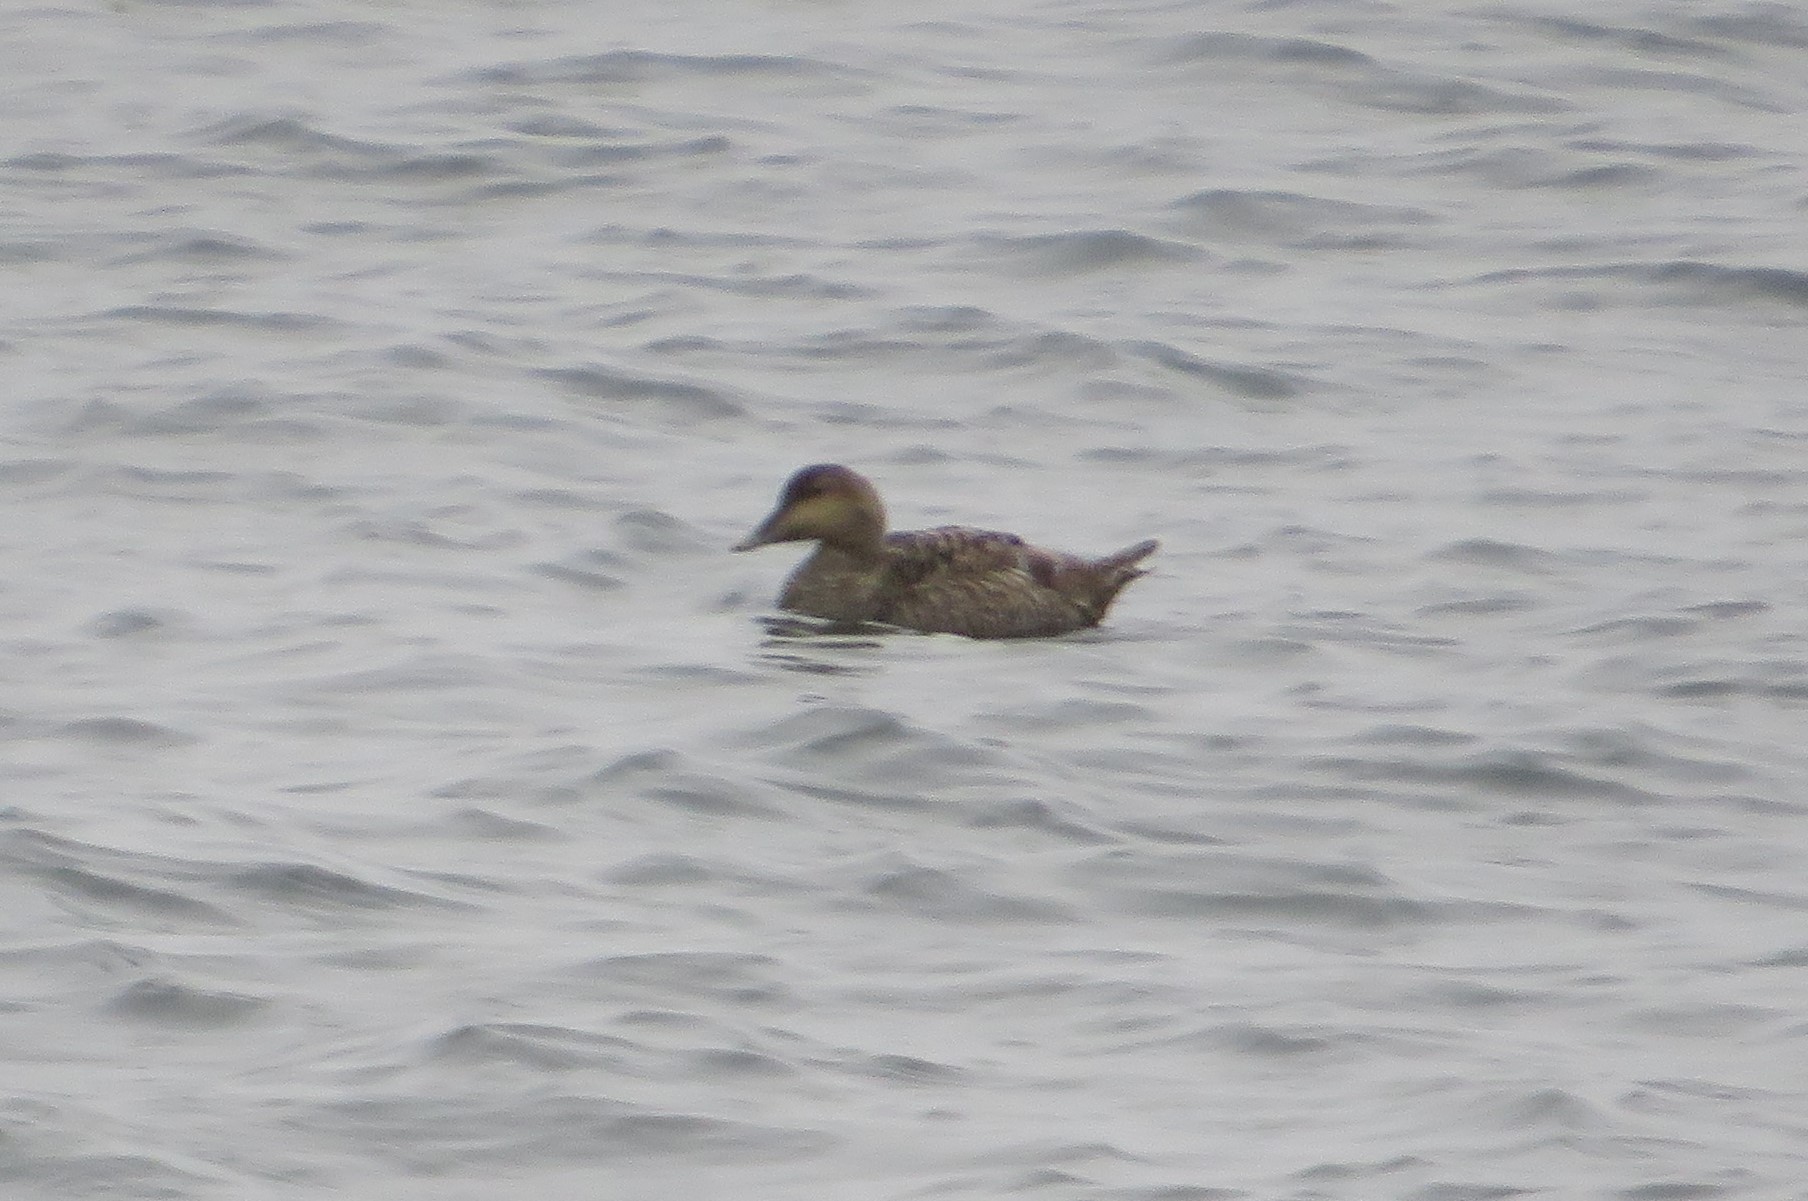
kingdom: Animalia
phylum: Chordata
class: Aves
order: Anseriformes
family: Anatidae
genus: Somateria
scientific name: Somateria mollissima
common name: Common eider
